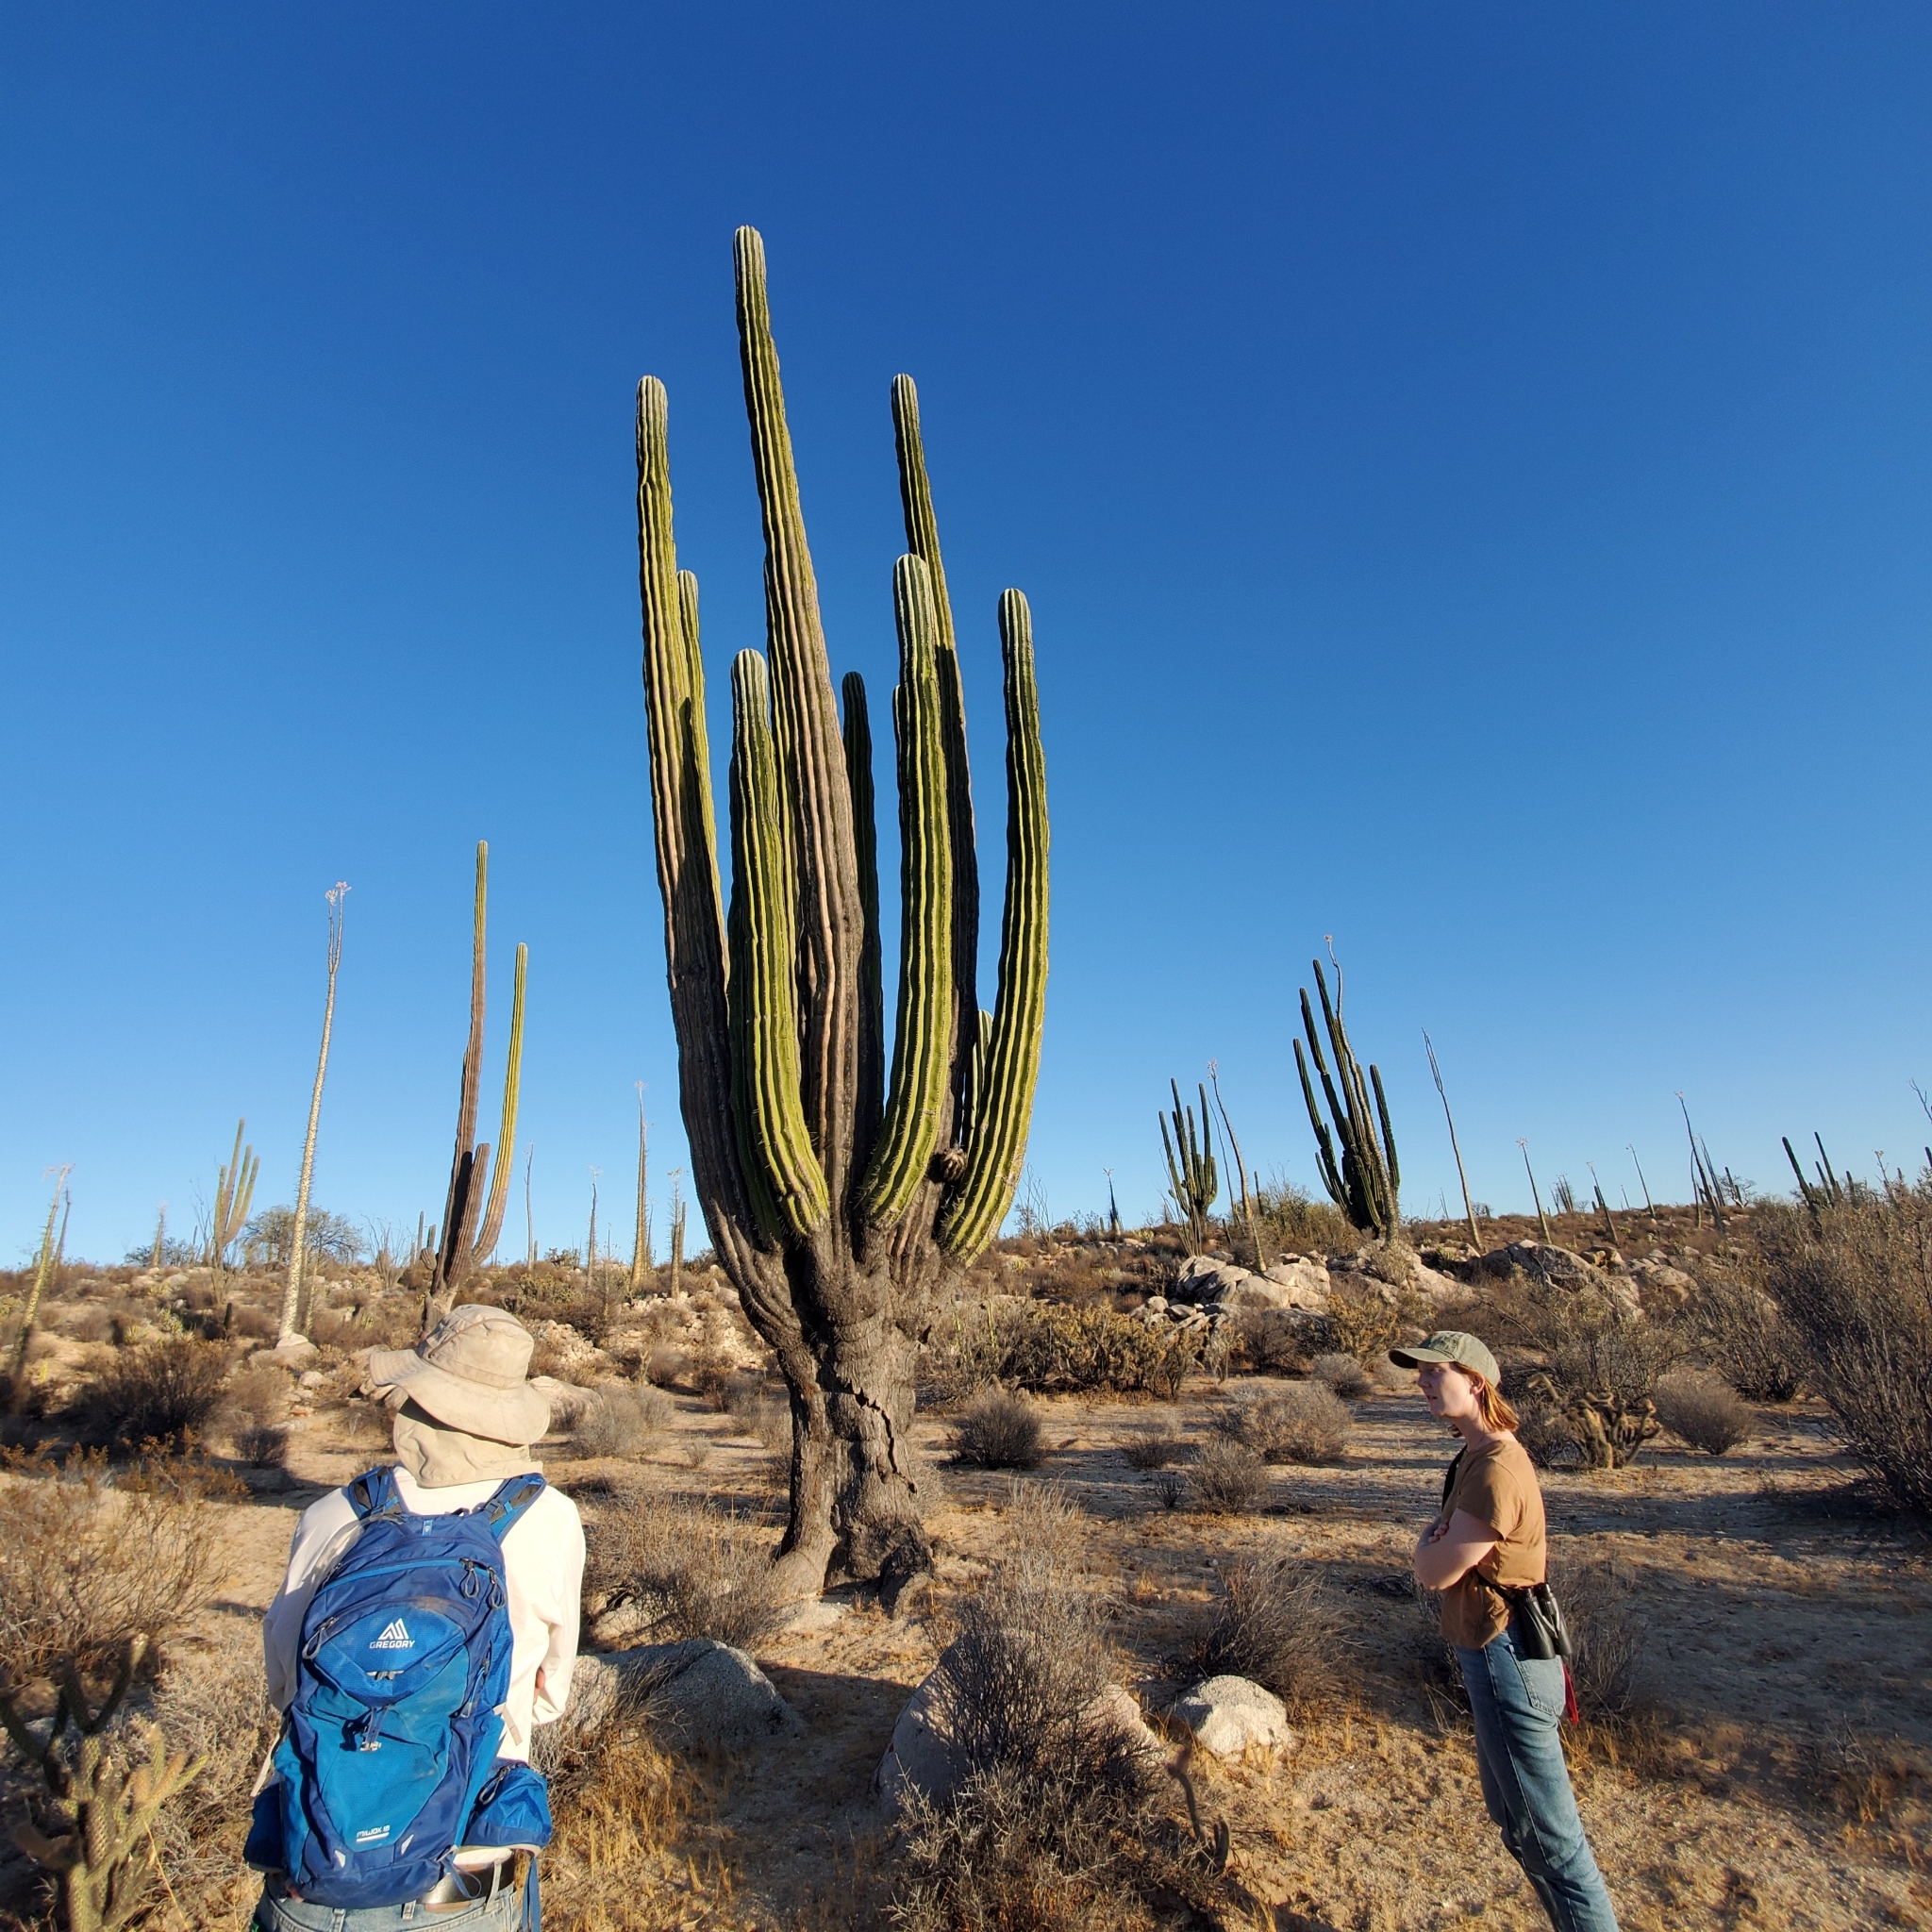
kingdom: Plantae
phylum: Tracheophyta
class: Magnoliopsida
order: Caryophyllales
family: Cactaceae
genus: Pachycereus
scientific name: Pachycereus pringlei
